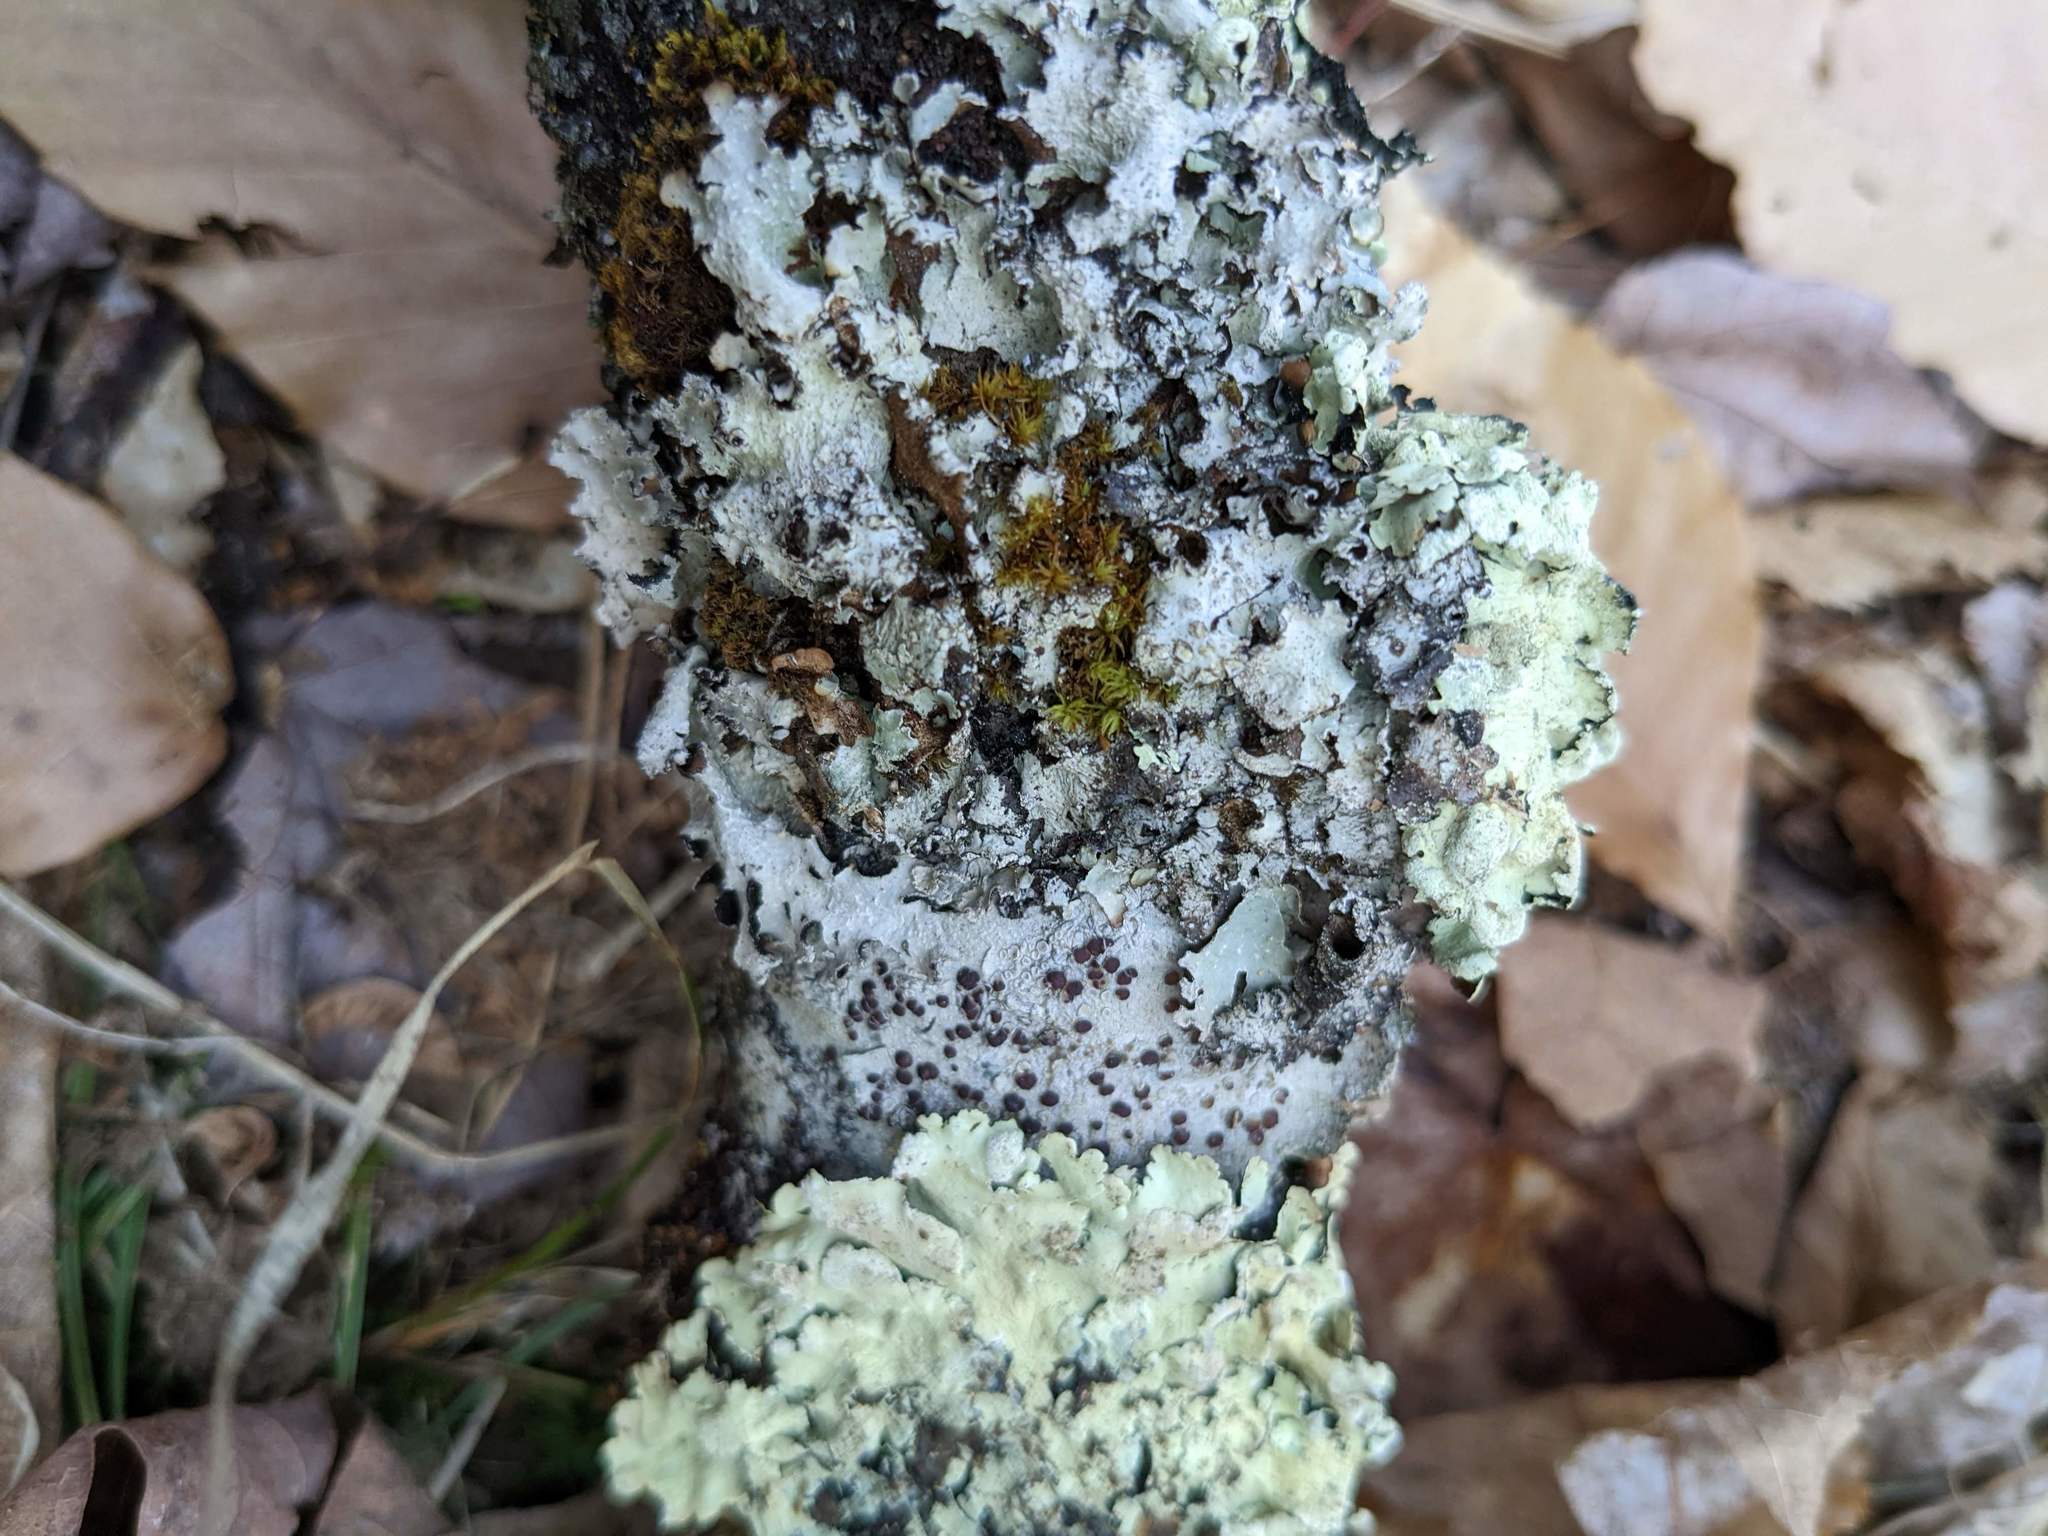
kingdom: Plantae
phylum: Bryophyta
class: Bryopsida
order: Orthotrichales
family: Orthotrichaceae
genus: Ulota
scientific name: Ulota crispa
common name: Crisped pincushion moss
